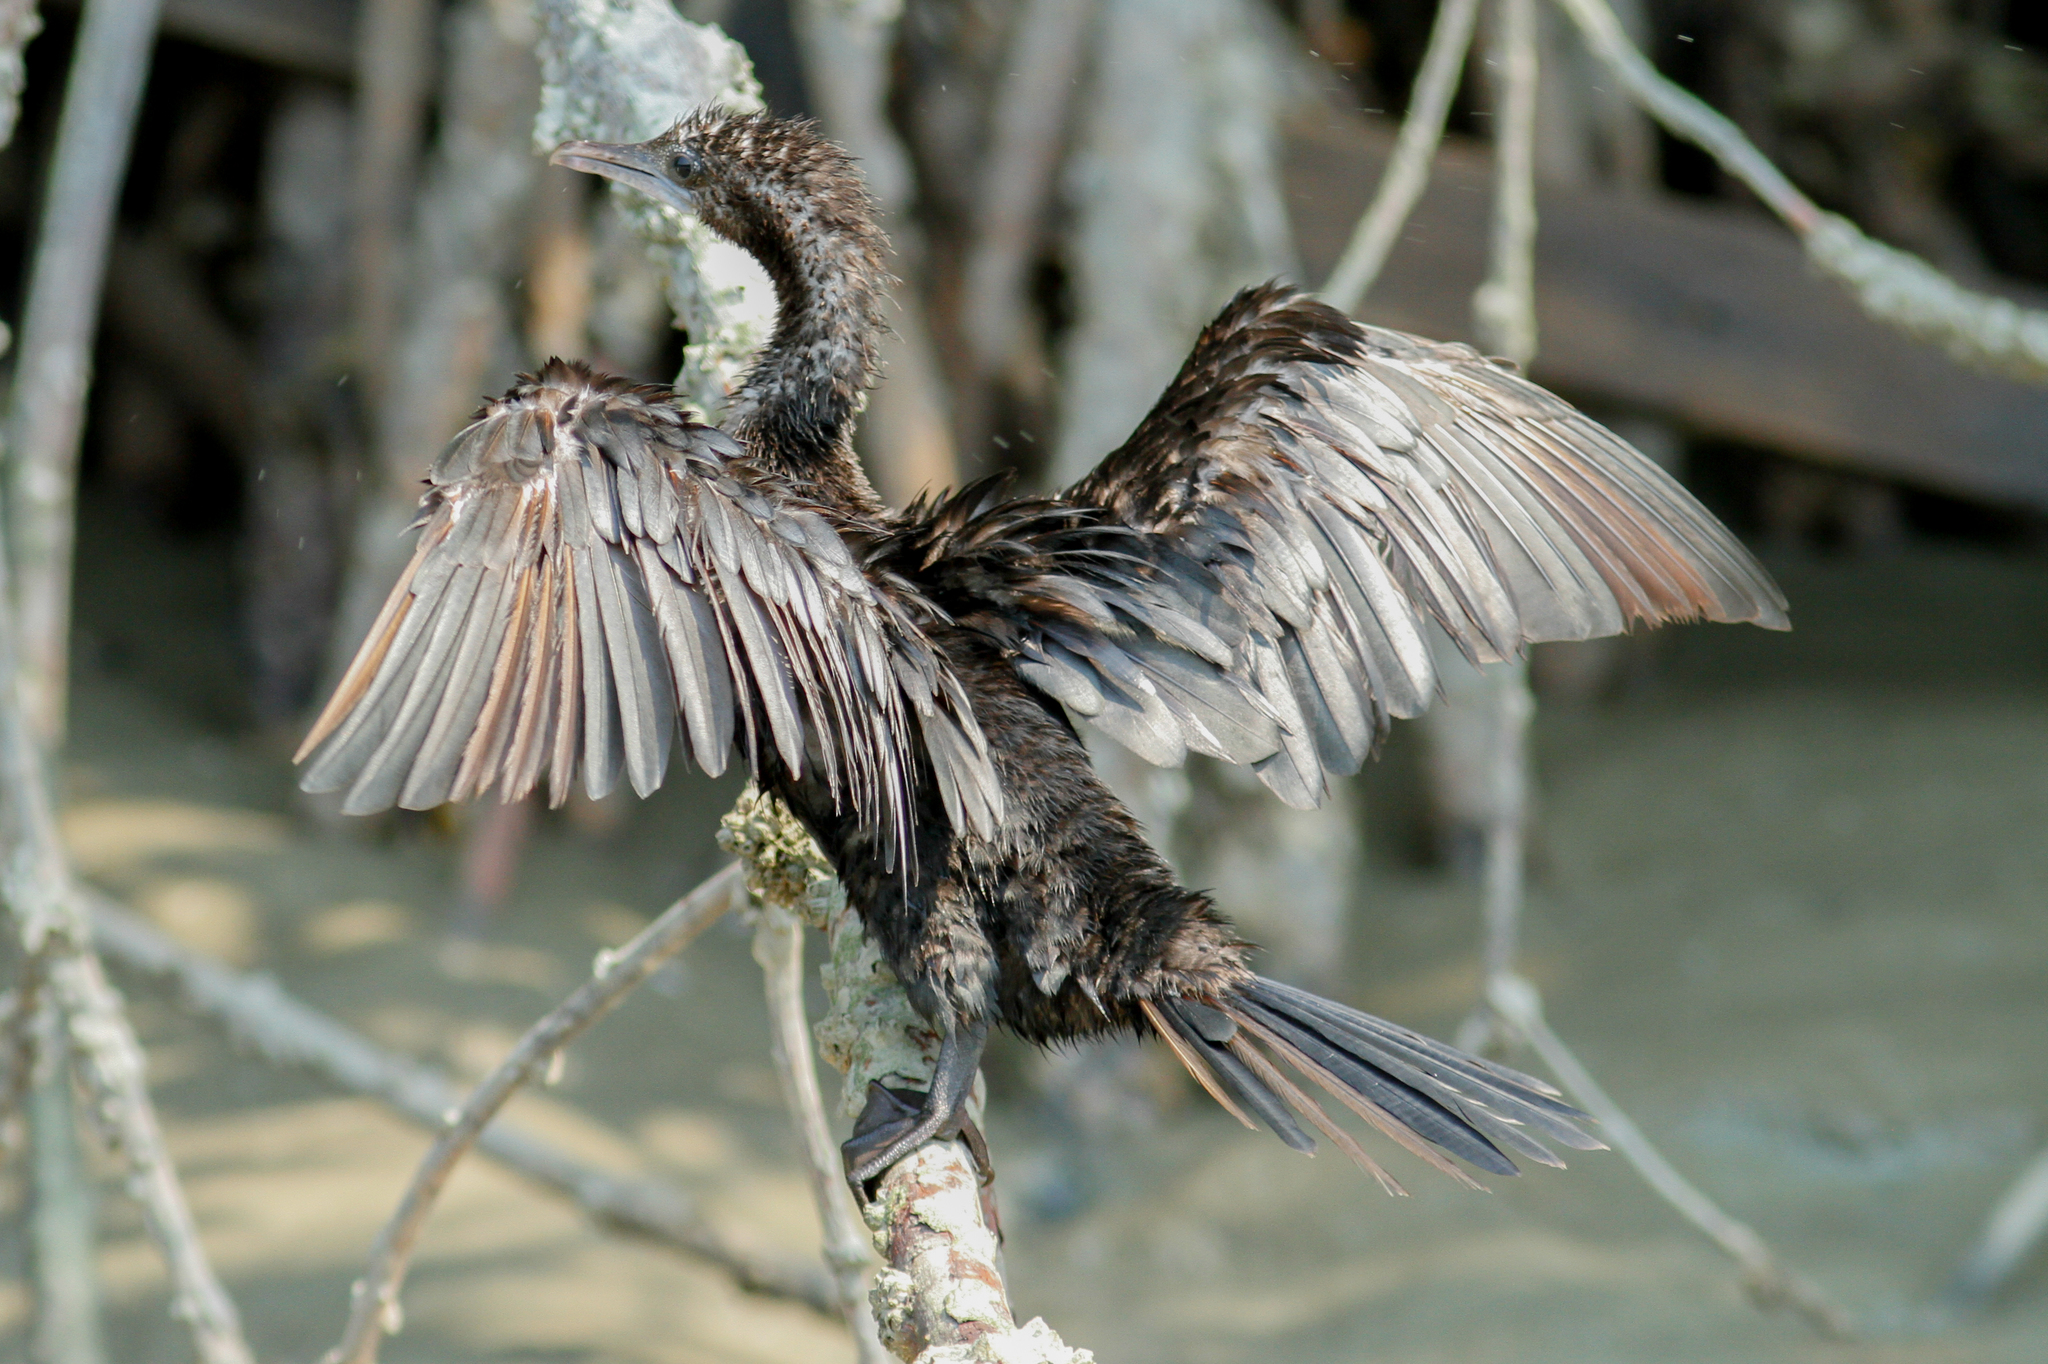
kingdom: Animalia
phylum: Chordata
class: Aves
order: Suliformes
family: Phalacrocoracidae
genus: Microcarbo
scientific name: Microcarbo niger
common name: Little cormorant
